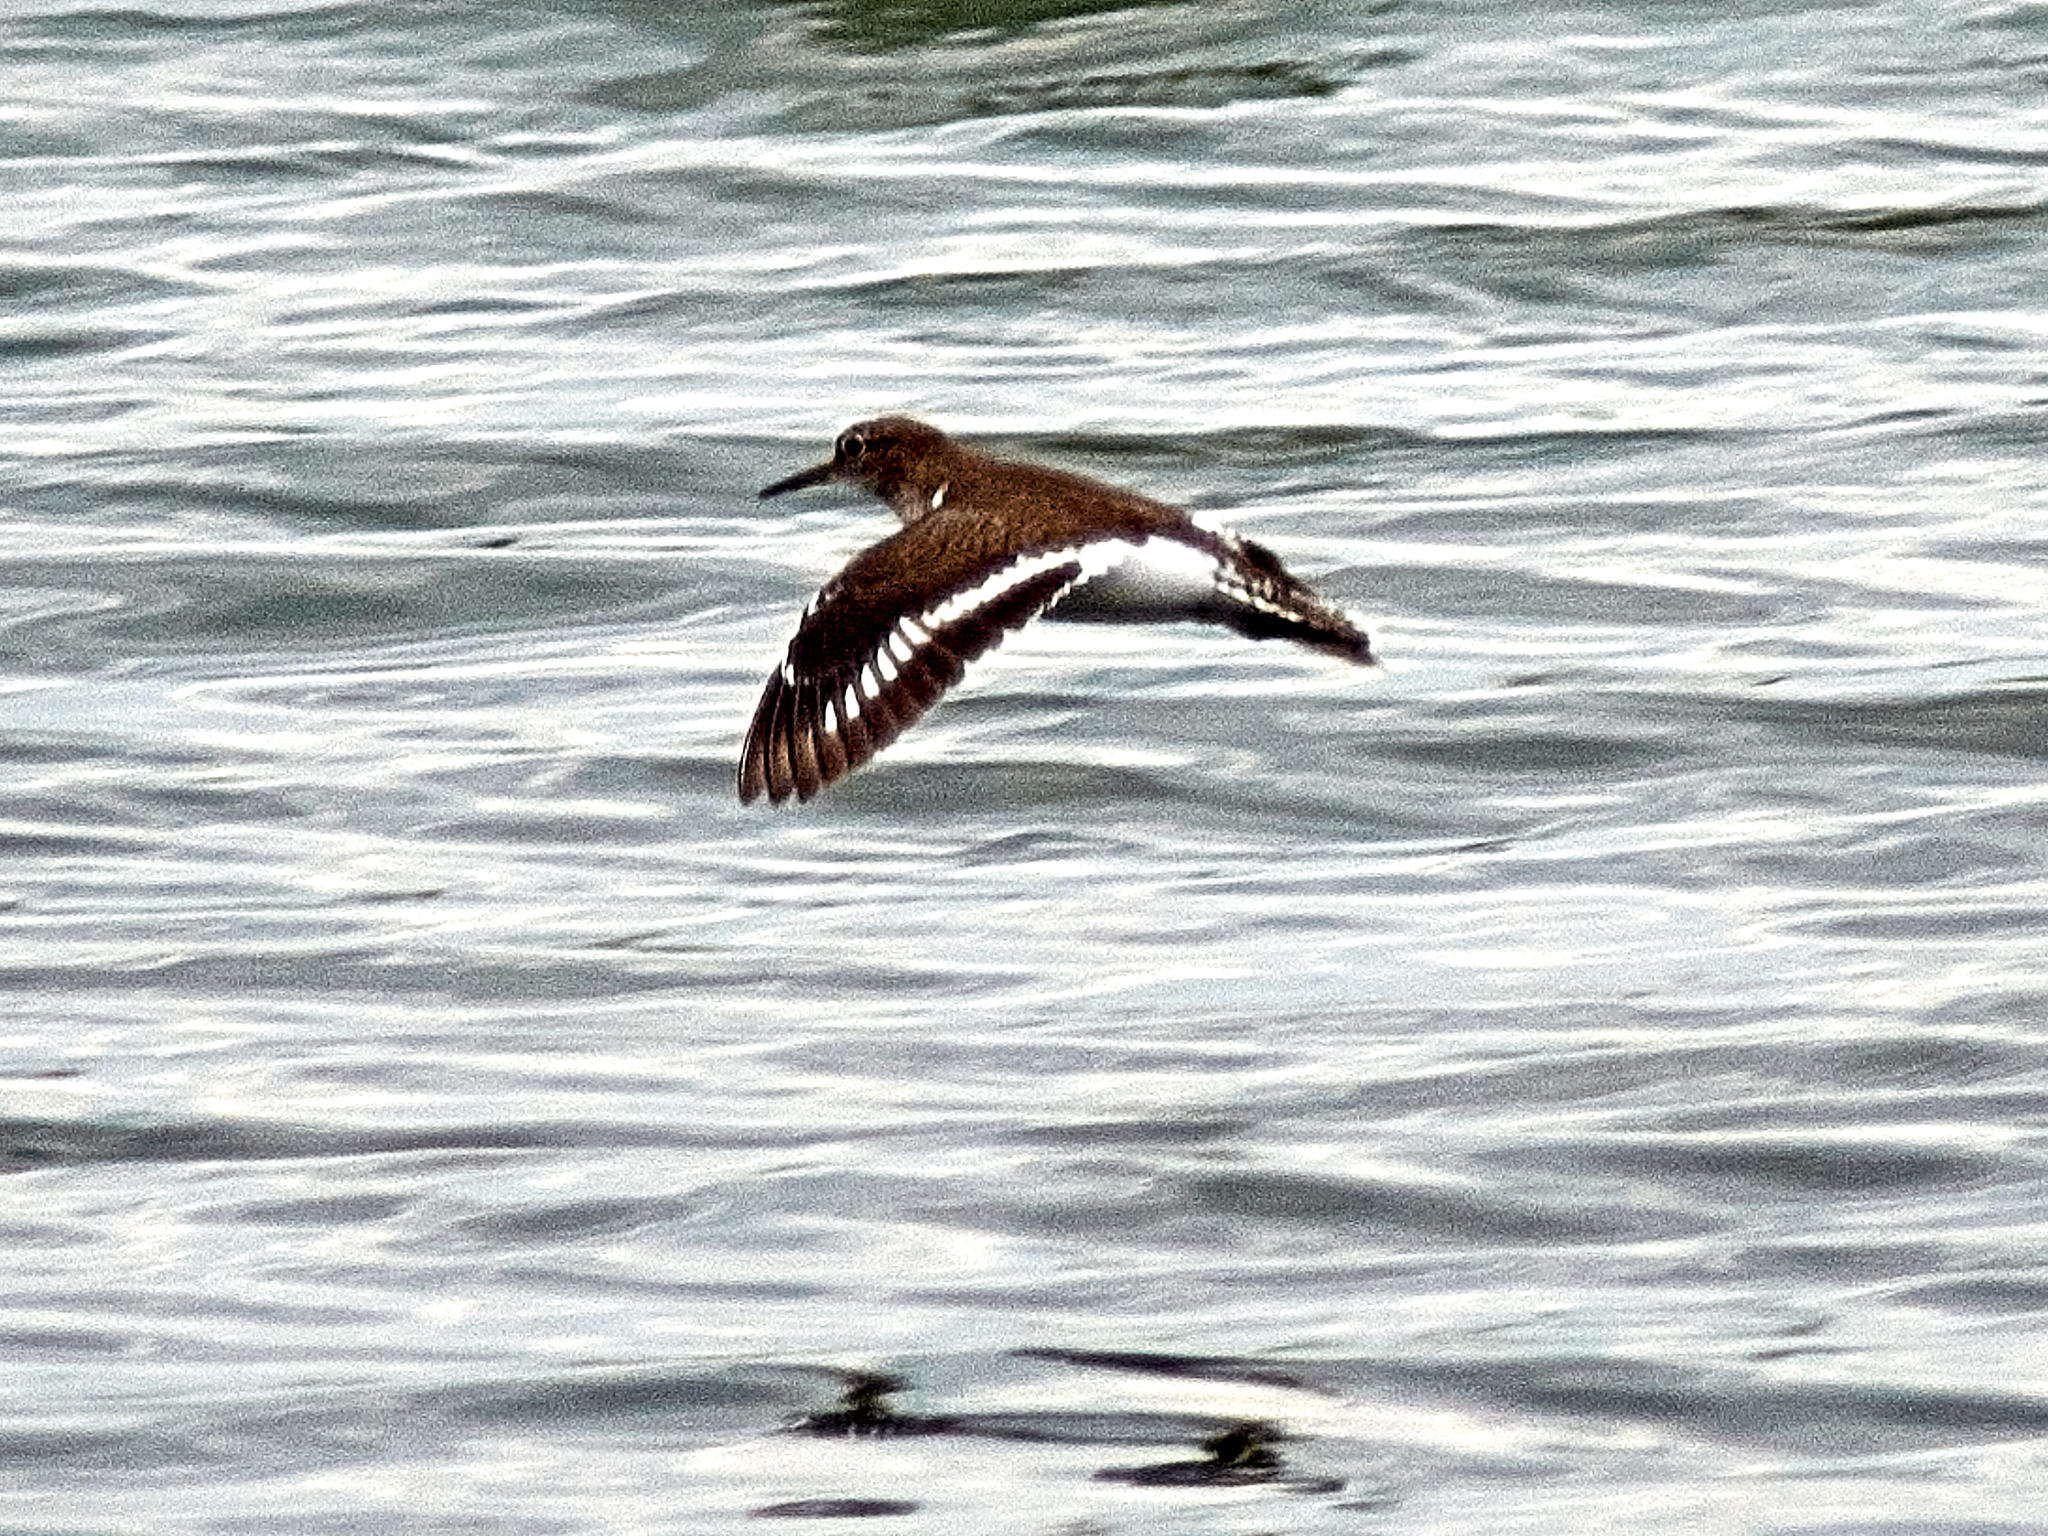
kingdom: Animalia
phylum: Chordata
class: Aves
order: Charadriiformes
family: Scolopacidae
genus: Actitis
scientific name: Actitis hypoleucos
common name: Common sandpiper
